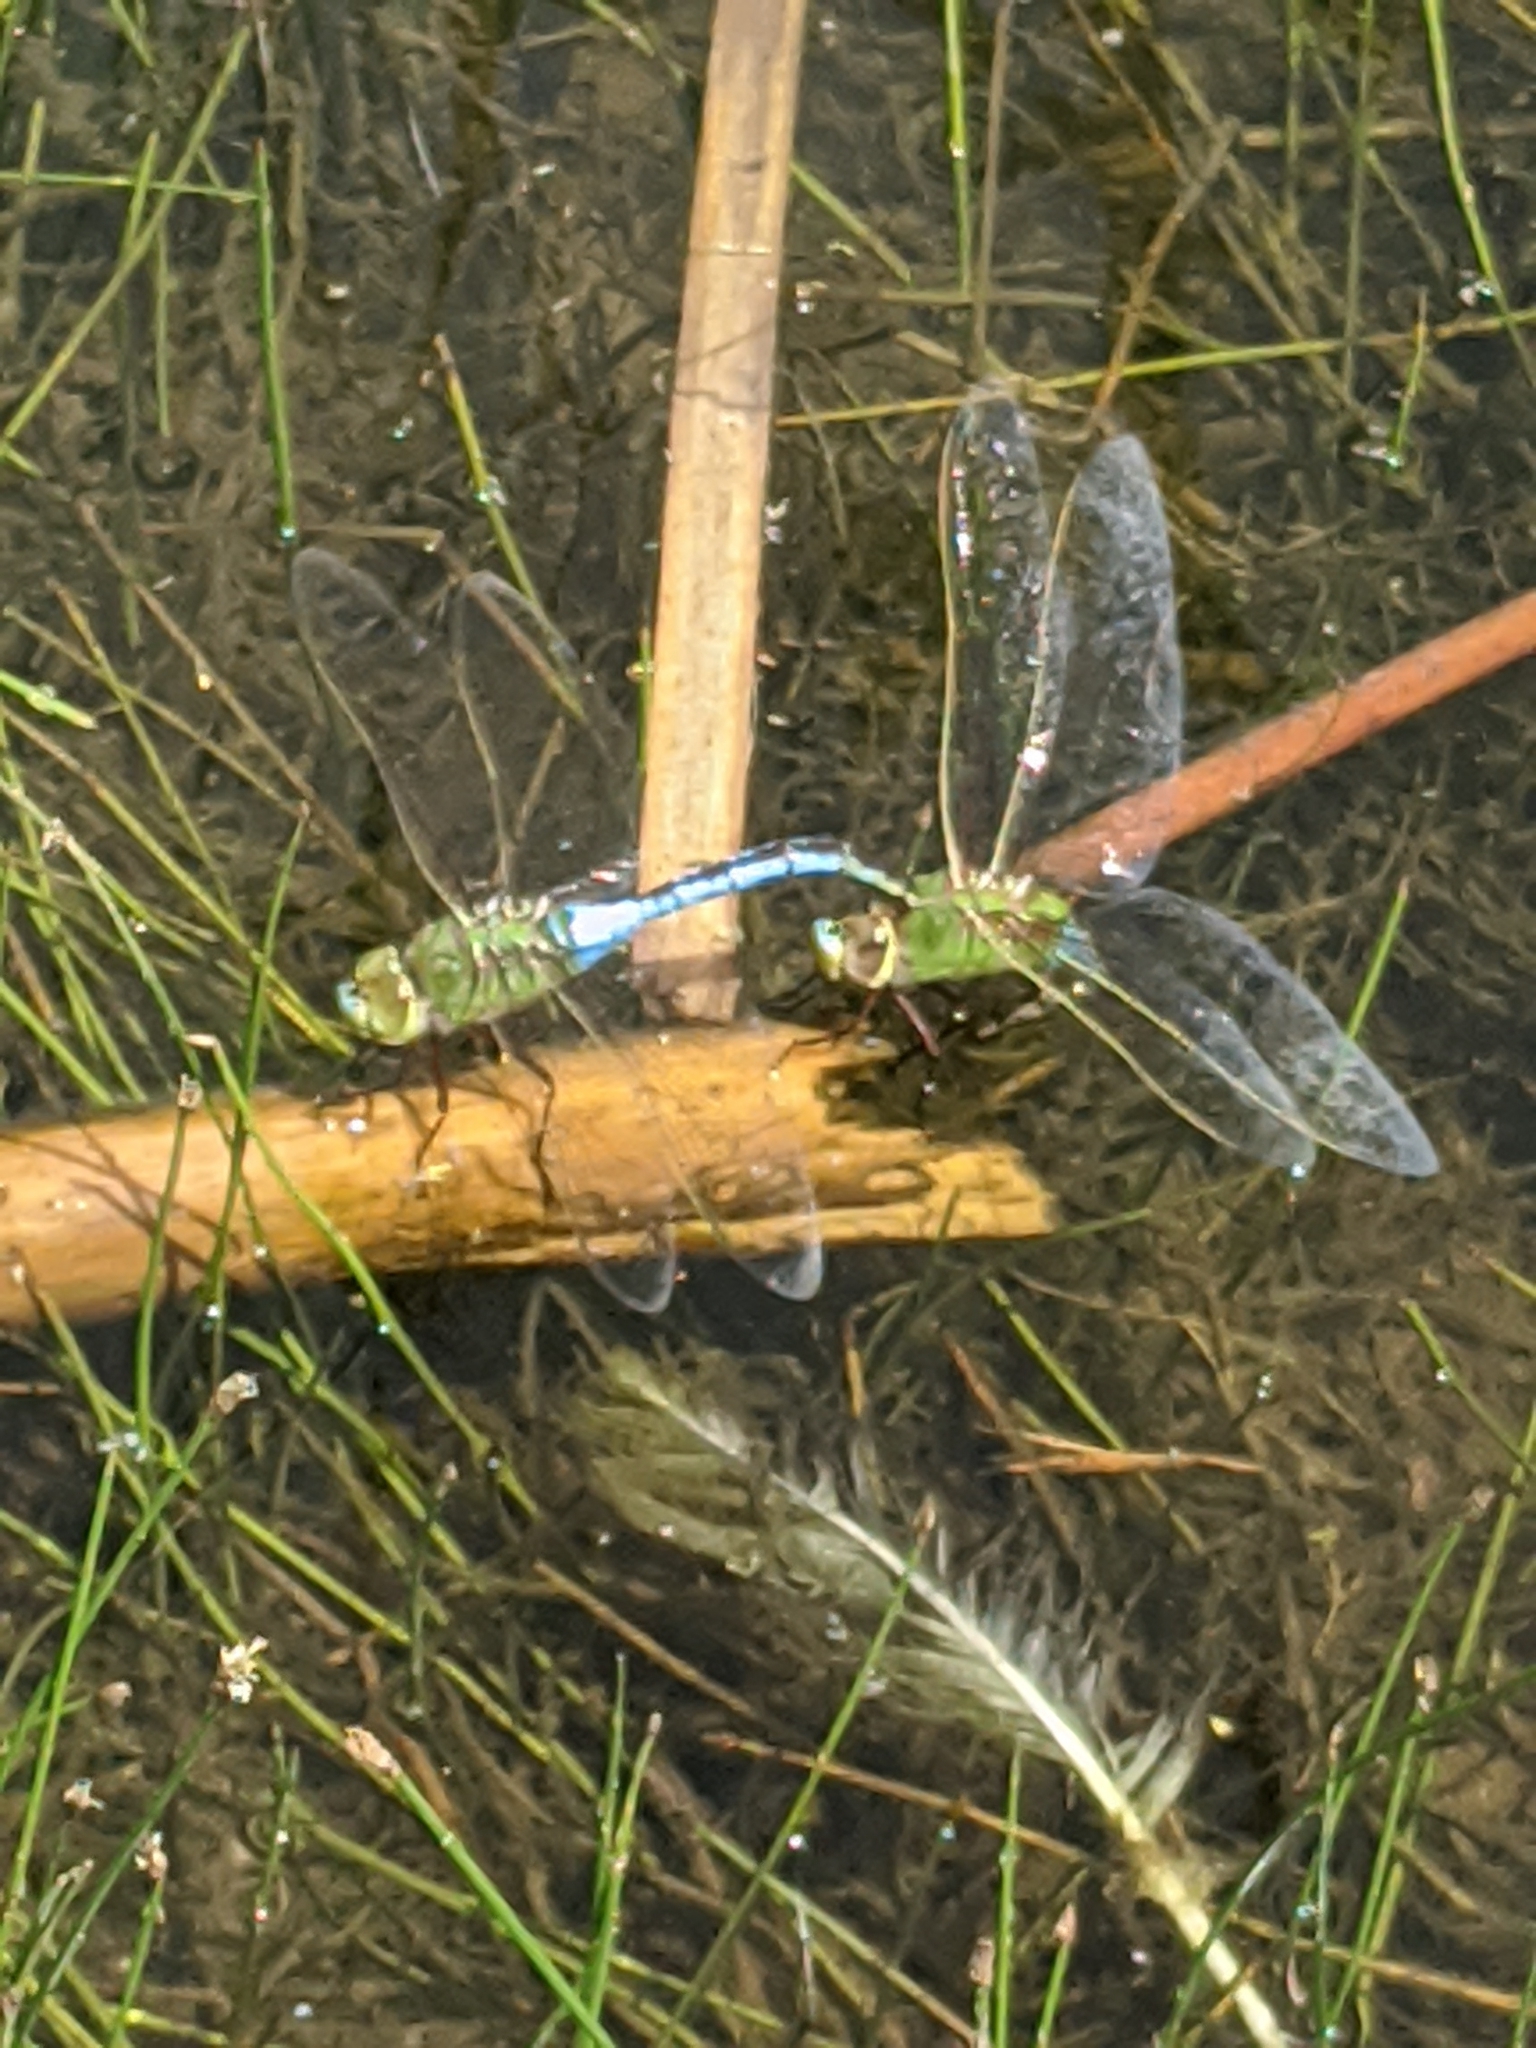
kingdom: Animalia
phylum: Arthropoda
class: Insecta
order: Odonata
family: Aeshnidae
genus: Anax
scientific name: Anax junius
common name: Common green darner
